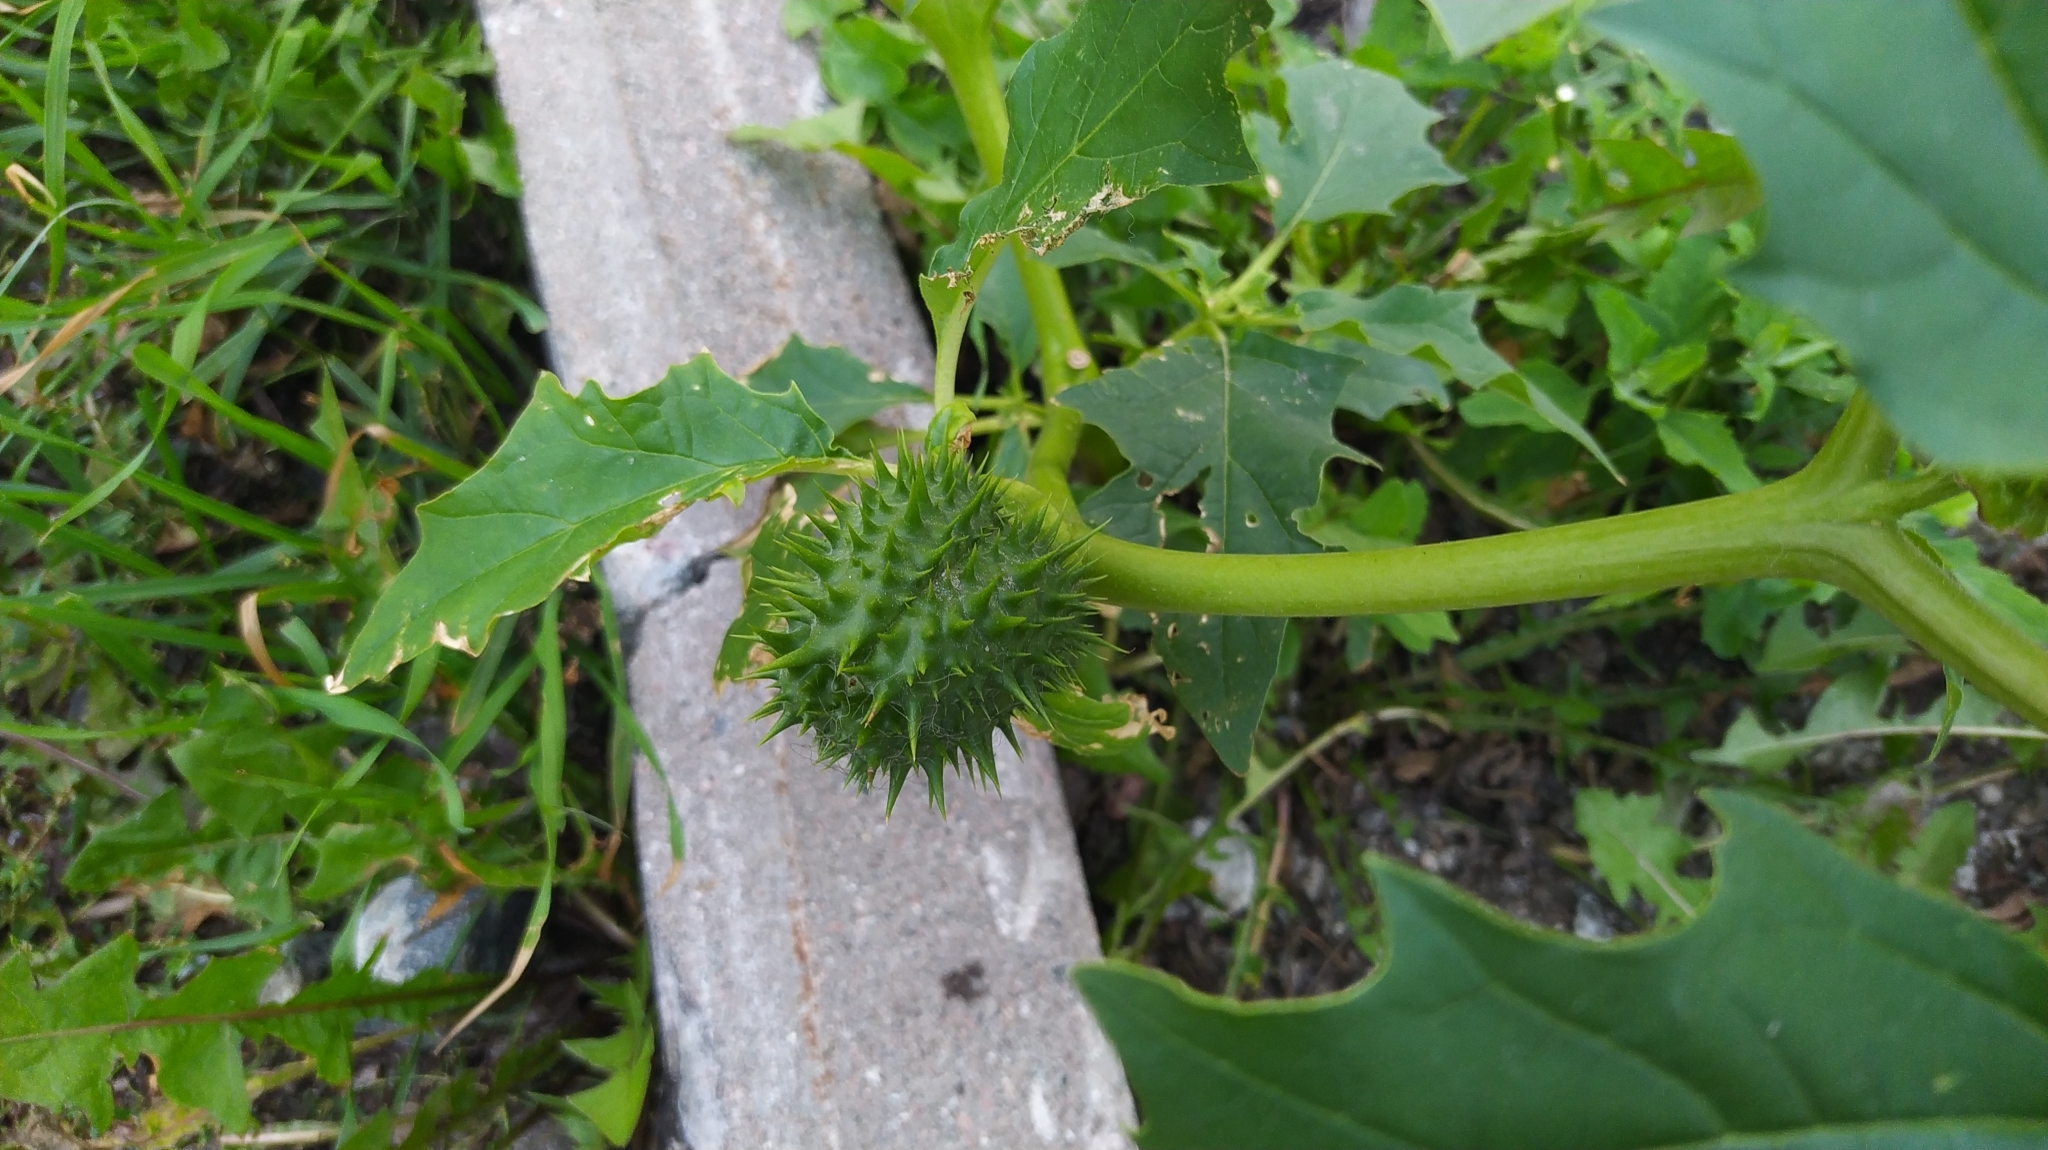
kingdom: Plantae
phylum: Tracheophyta
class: Magnoliopsida
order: Solanales
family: Solanaceae
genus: Datura
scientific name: Datura stramonium
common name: Thorn-apple
